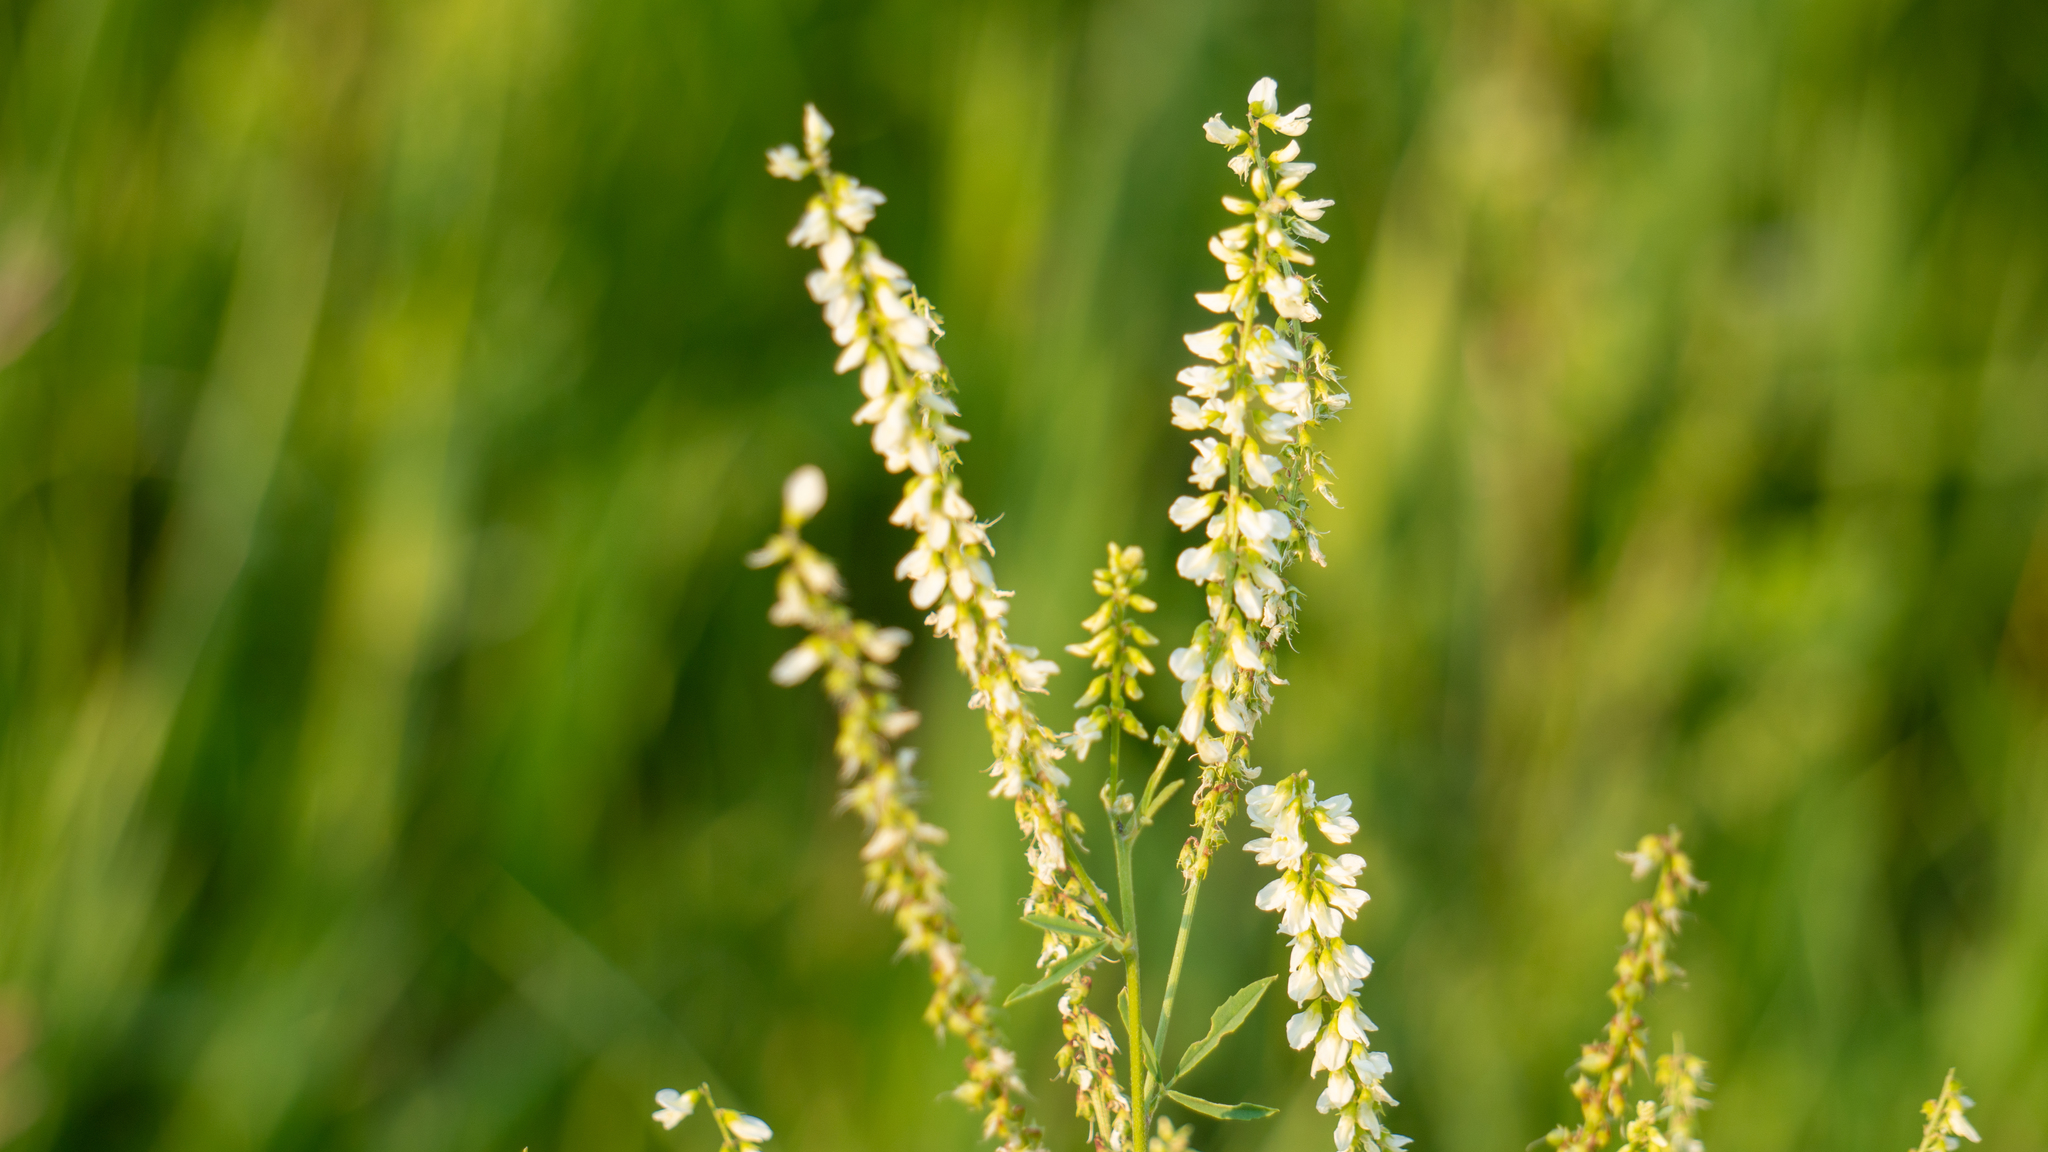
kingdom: Plantae
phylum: Tracheophyta
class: Magnoliopsida
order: Fabales
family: Fabaceae
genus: Melilotus
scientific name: Melilotus albus
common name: White melilot
